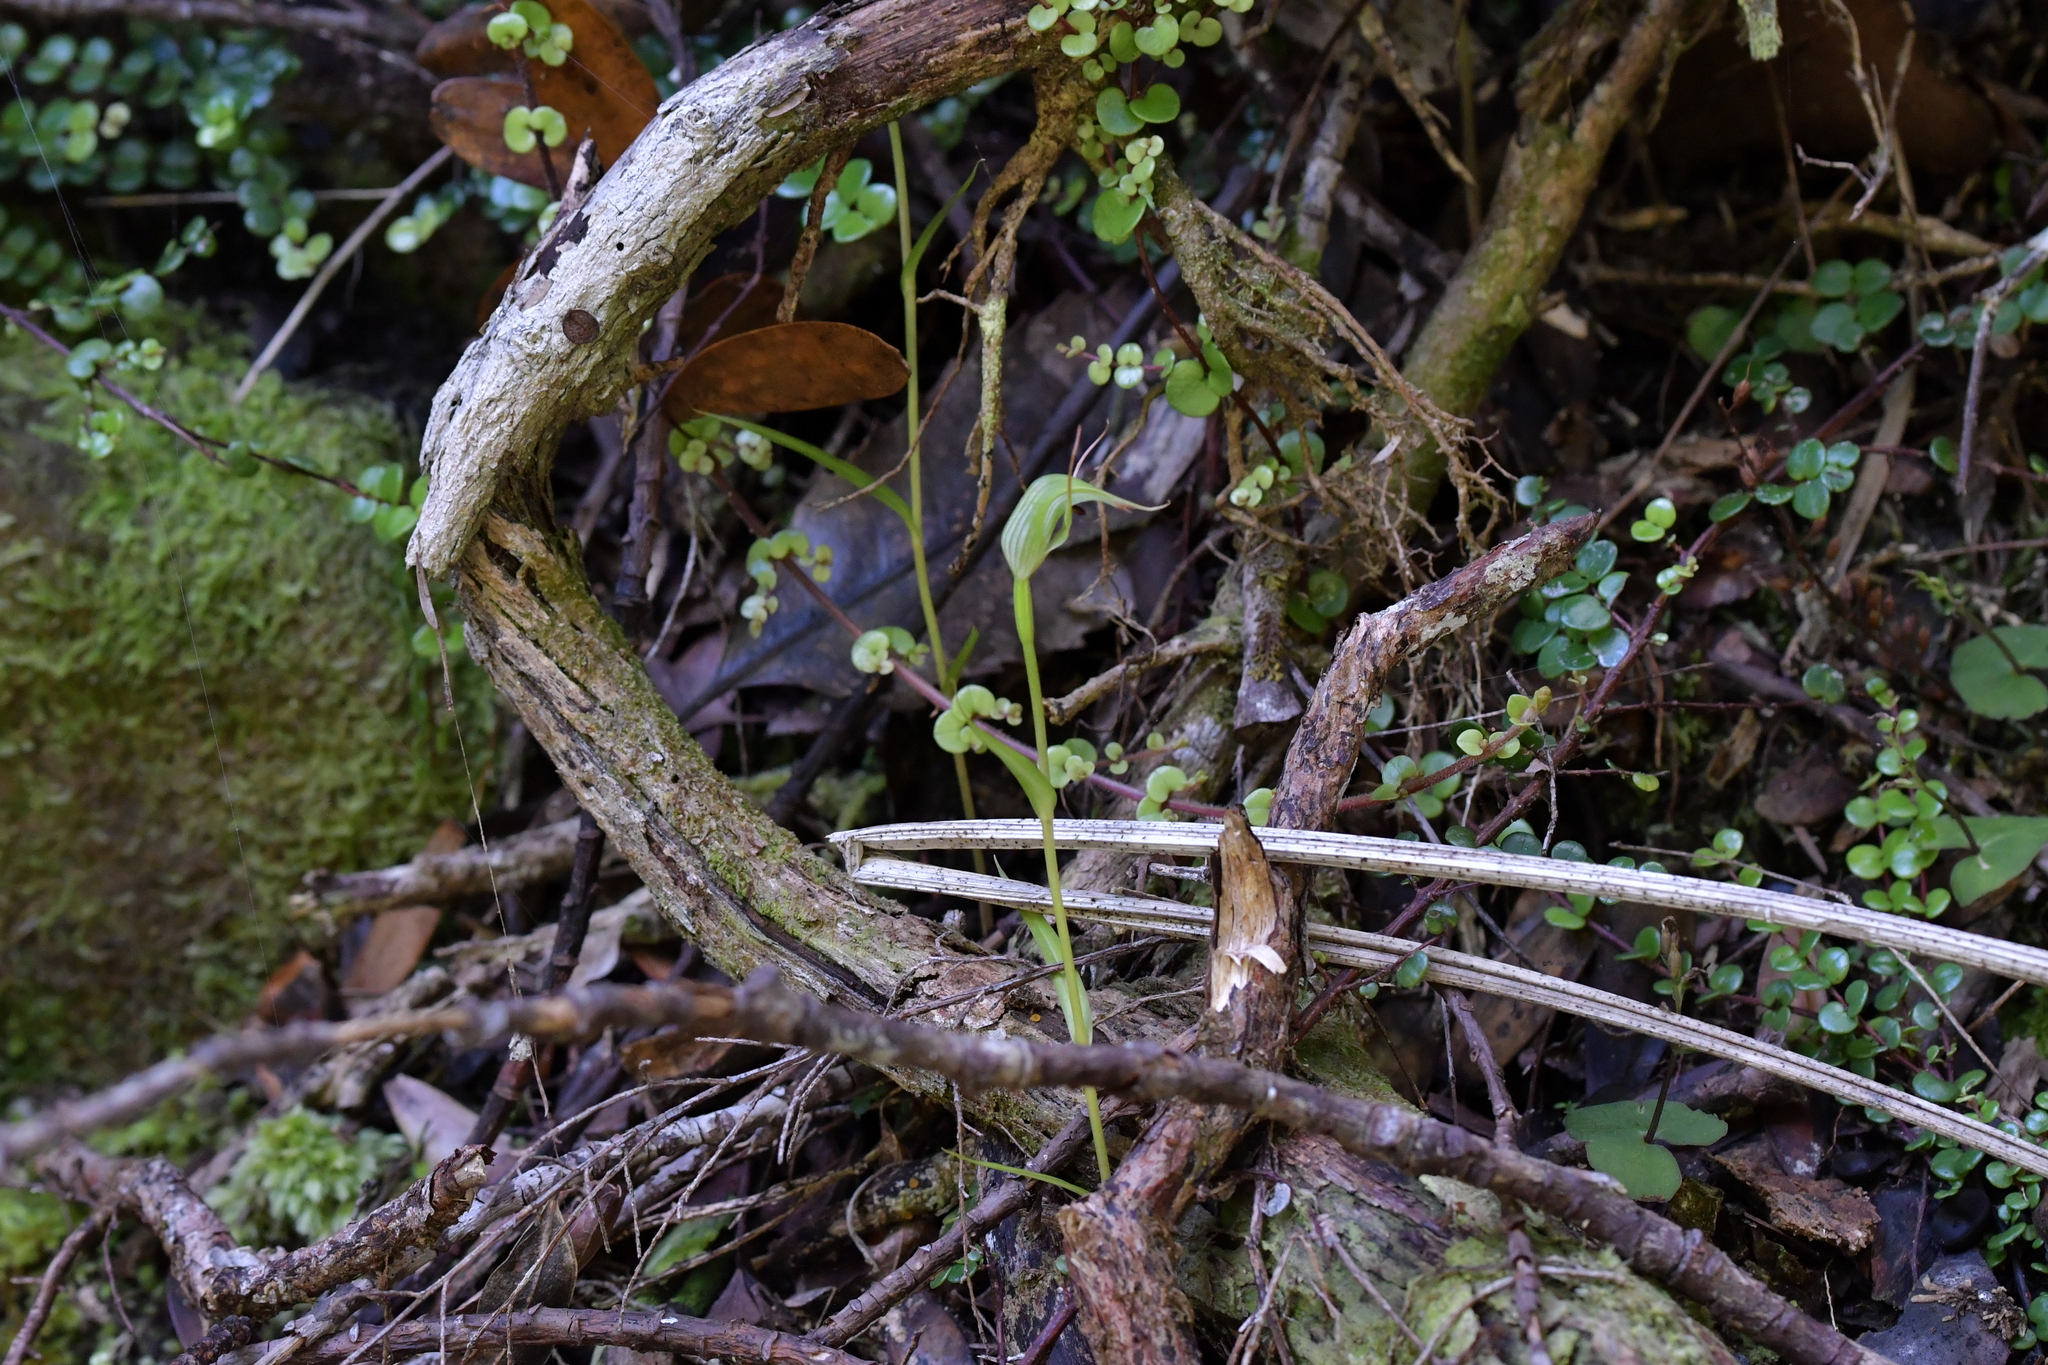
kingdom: Plantae
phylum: Tracheophyta
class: Liliopsida
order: Asparagales
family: Orchidaceae
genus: Pterostylis
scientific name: Pterostylis agathicola
